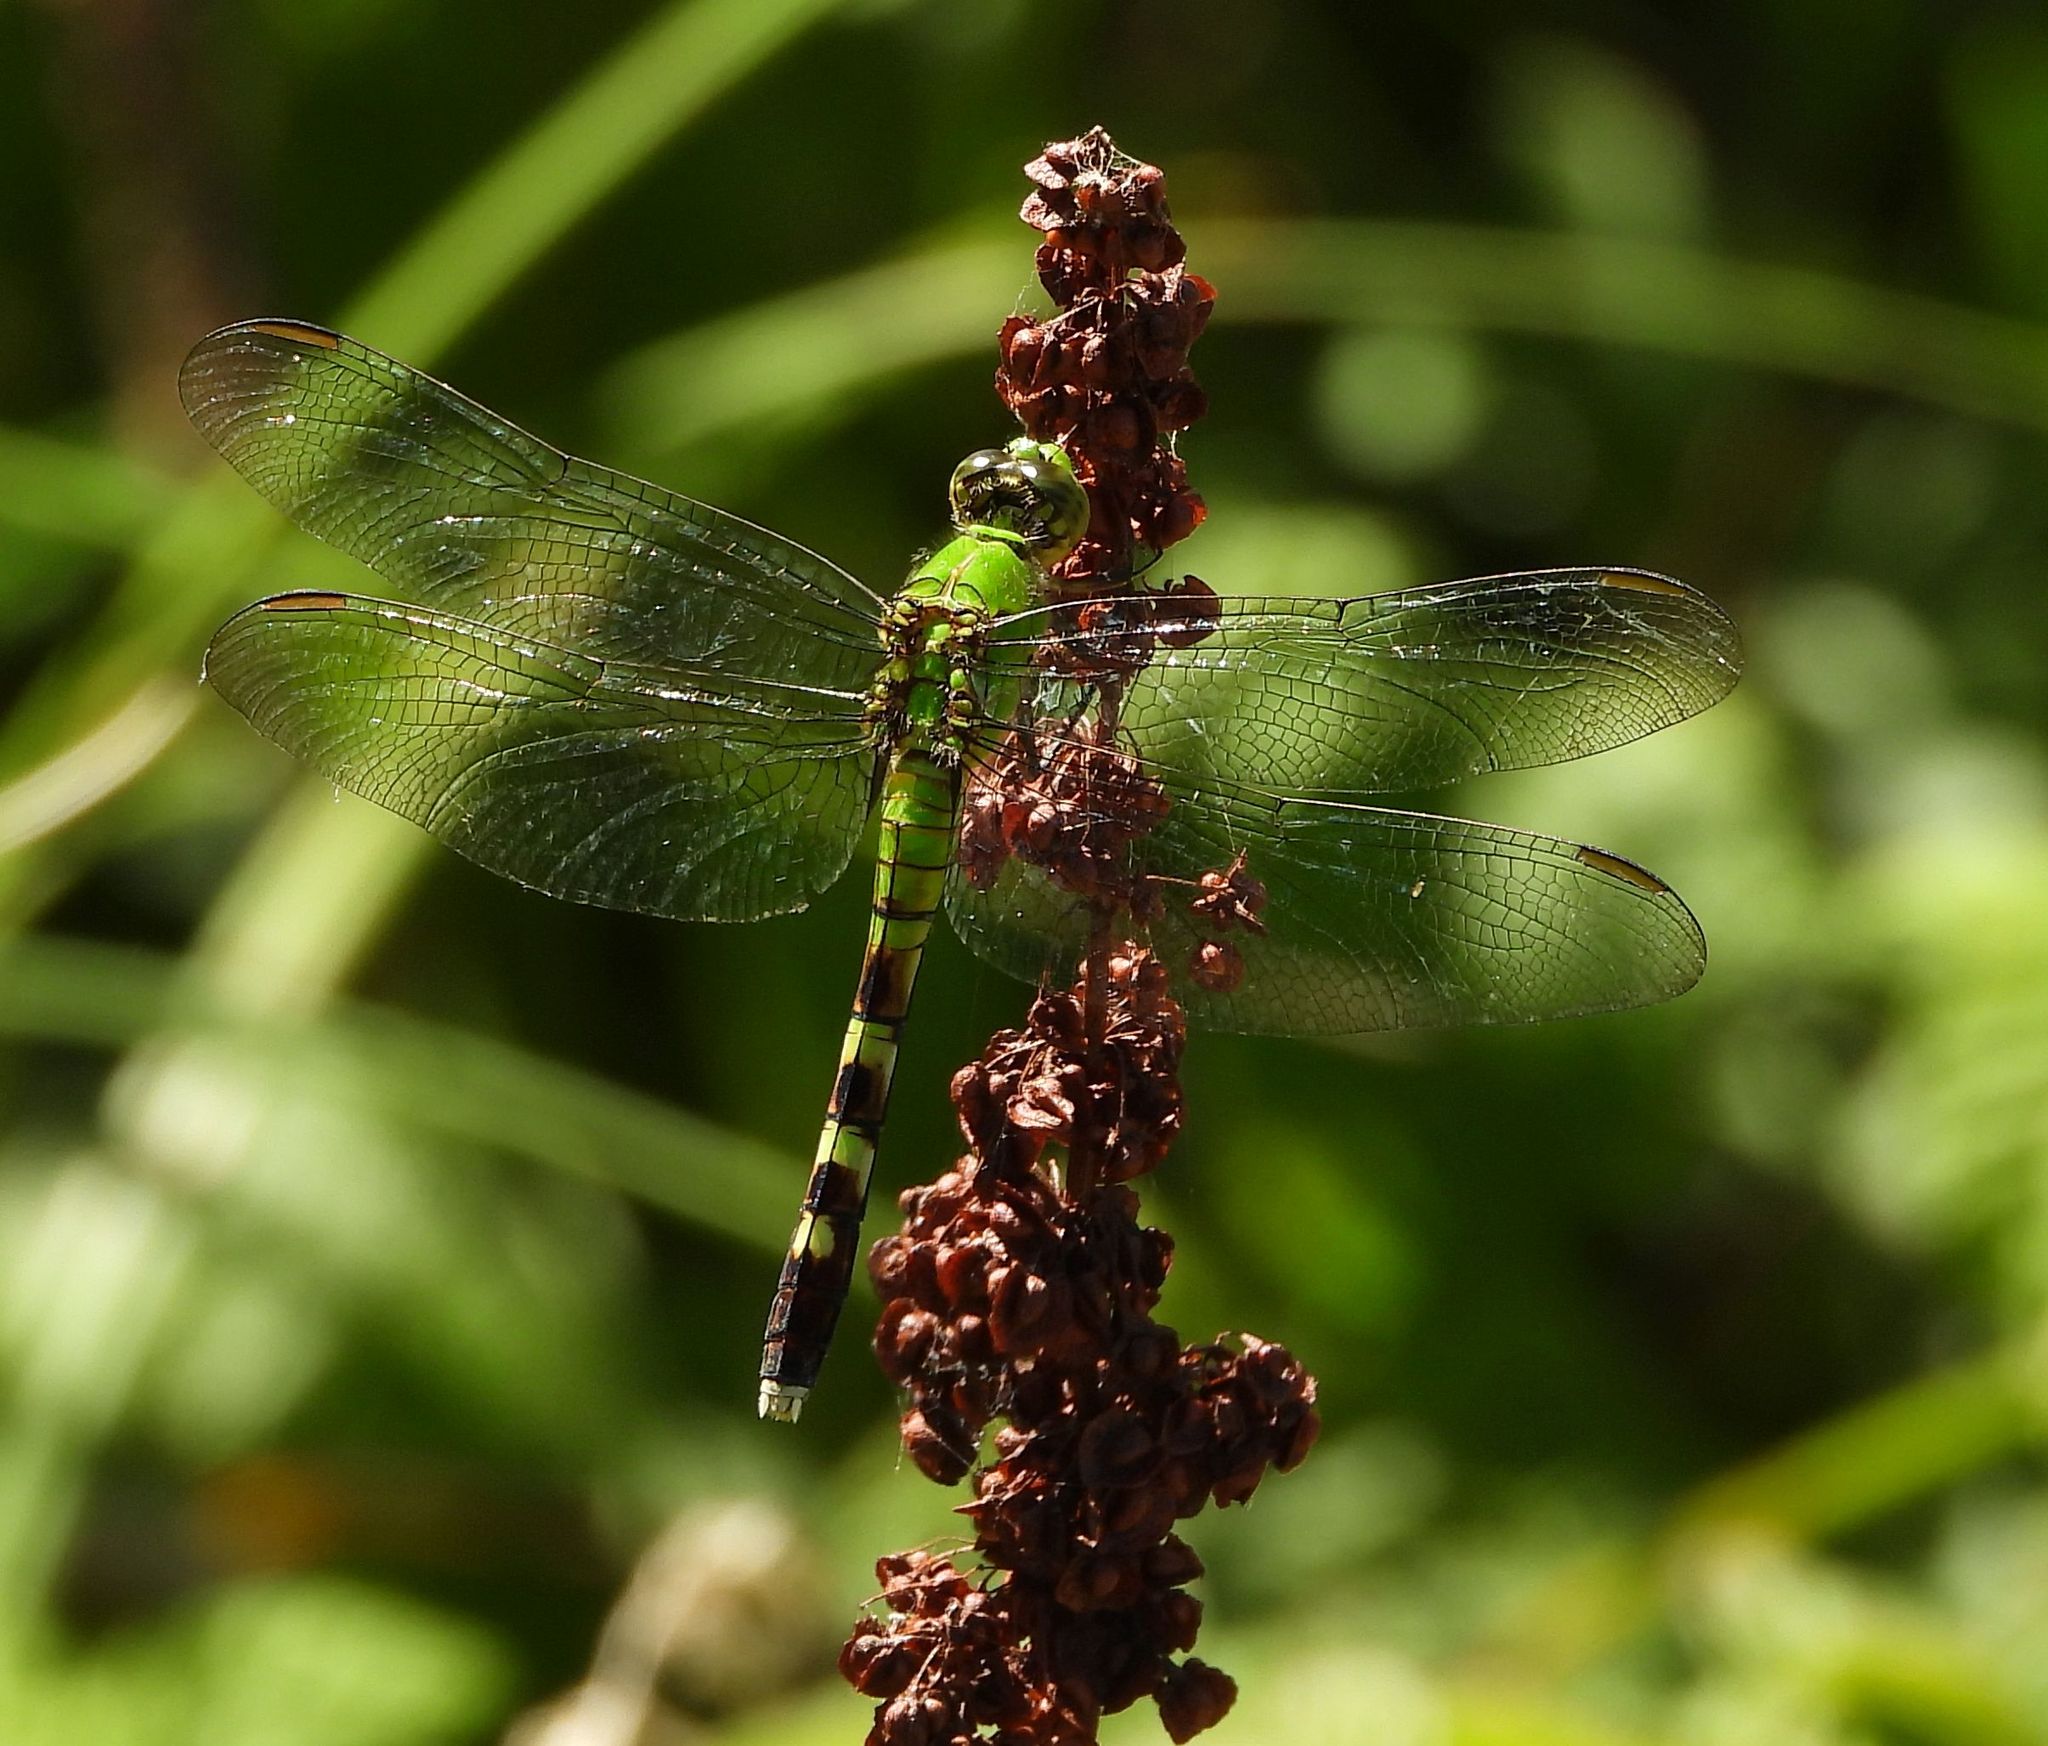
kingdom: Animalia
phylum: Arthropoda
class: Insecta
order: Odonata
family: Libellulidae
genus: Erythemis
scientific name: Erythemis simplicicollis
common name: Eastern pondhawk
